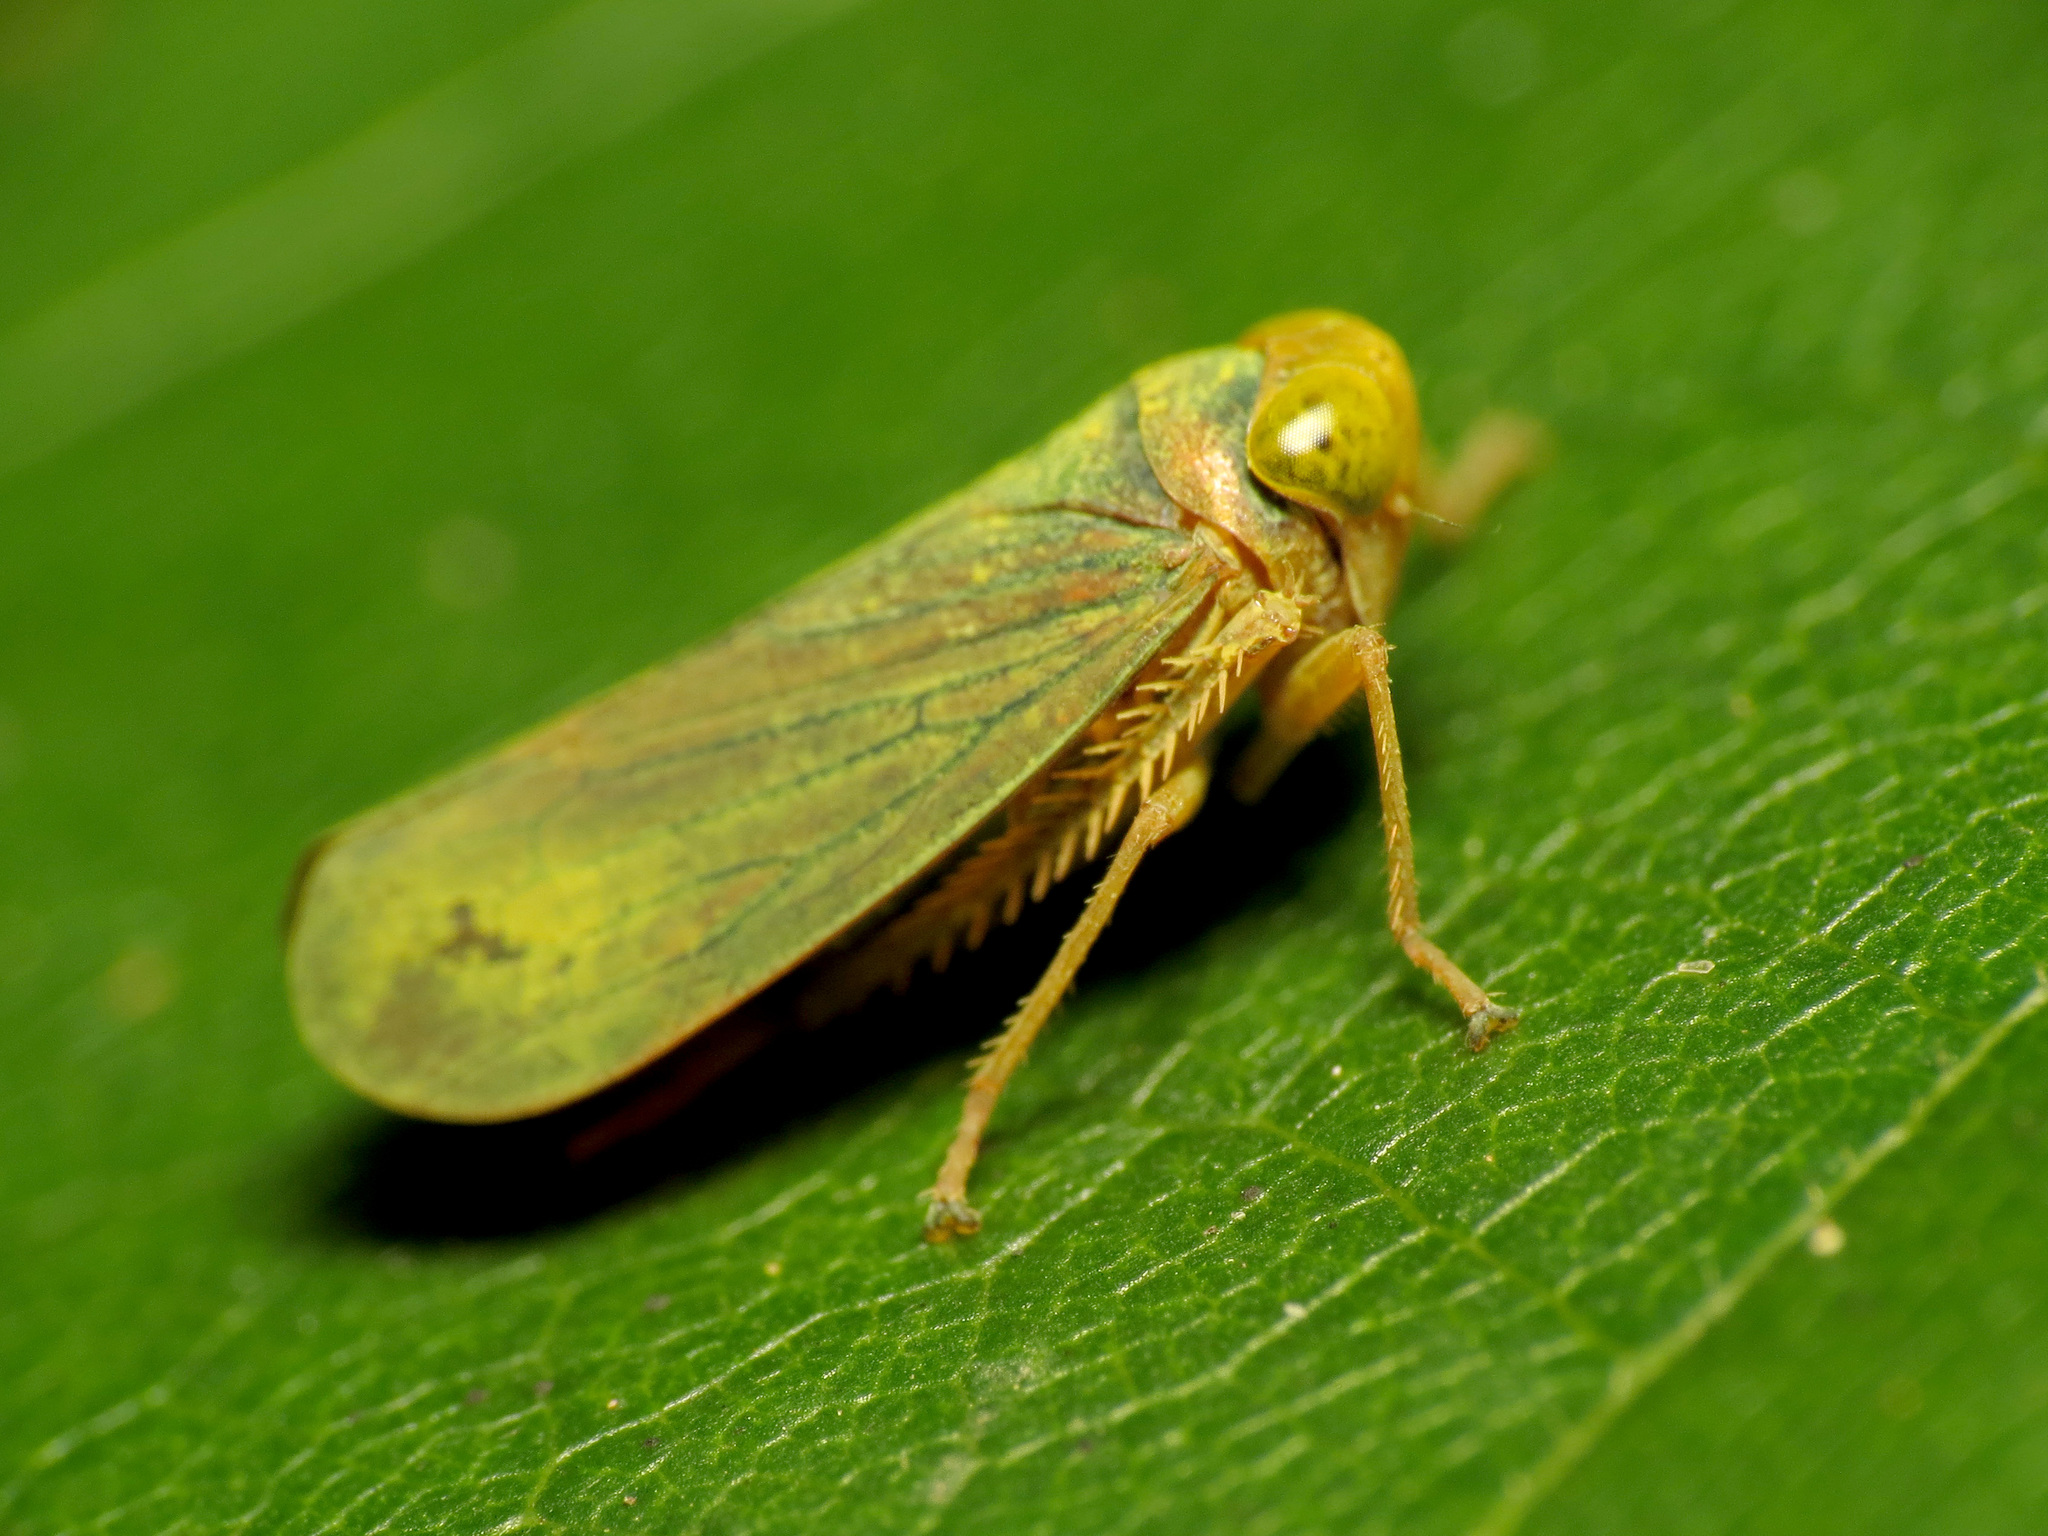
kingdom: Animalia
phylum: Arthropoda
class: Insecta
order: Hemiptera
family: Cicadellidae
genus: Jikradia
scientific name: Jikradia olitoria
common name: Coppery leafhopper
